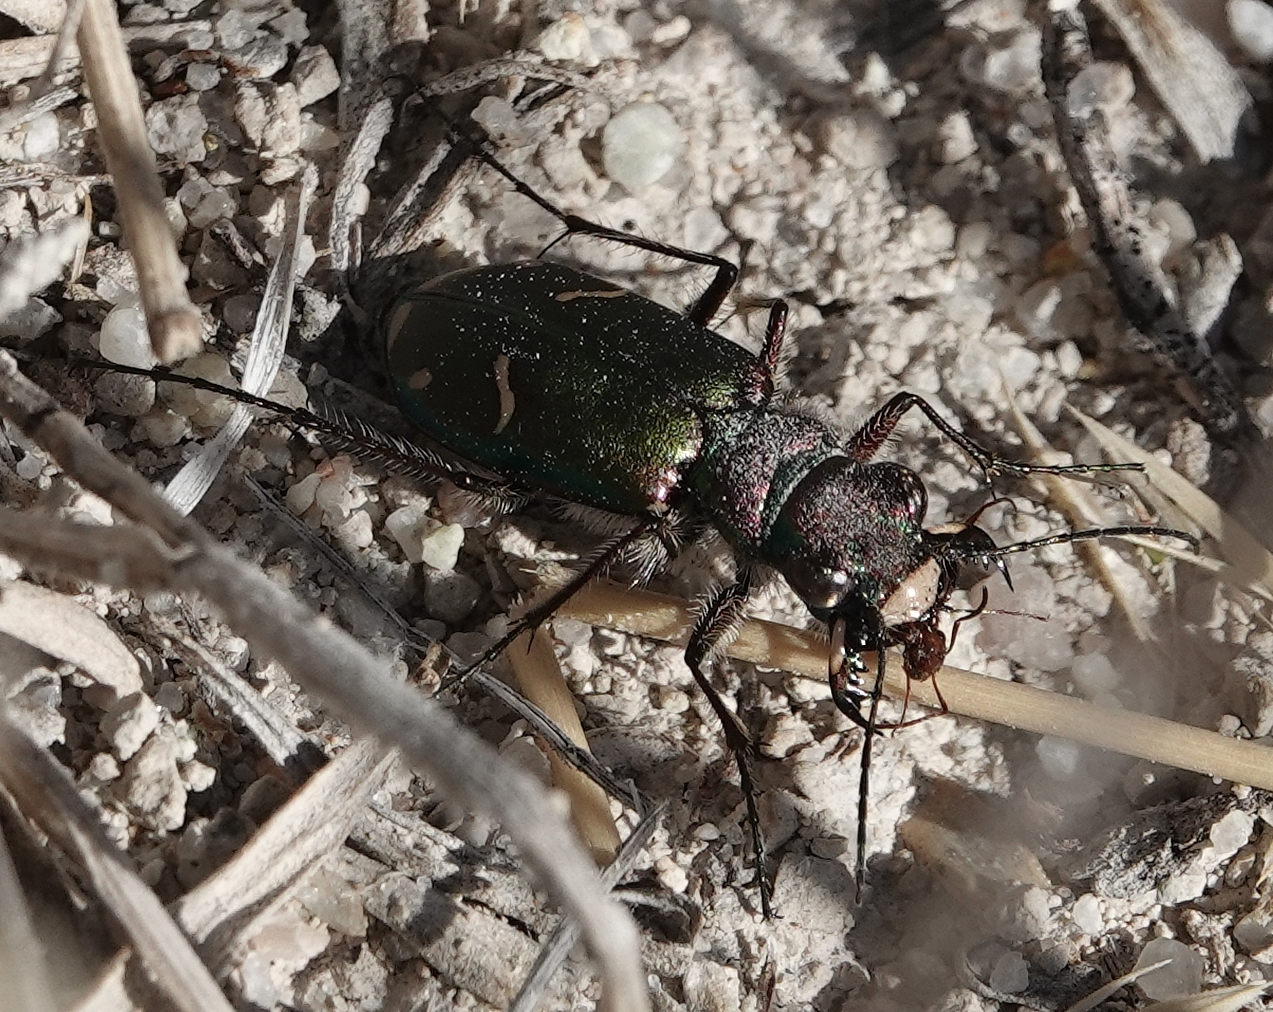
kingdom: Animalia
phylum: Arthropoda
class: Insecta
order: Coleoptera
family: Carabidae
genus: Cicindela
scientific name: Cicindela purpurea
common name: Cow path tiger beetle
